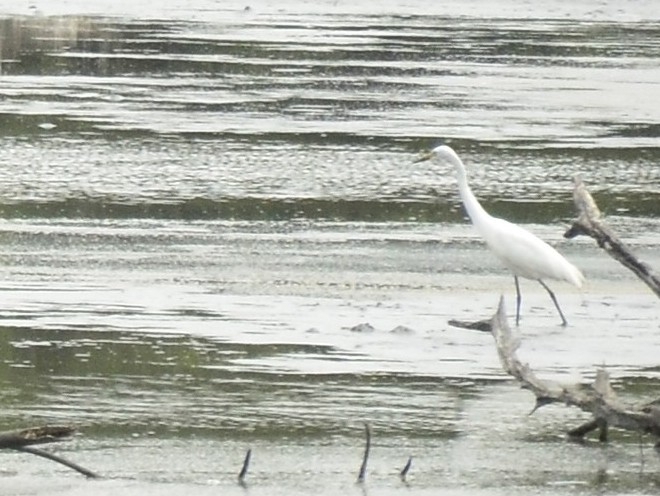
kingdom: Animalia
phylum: Chordata
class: Aves
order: Pelecaniformes
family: Ardeidae
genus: Egretta
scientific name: Egretta garzetta
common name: Little egret
